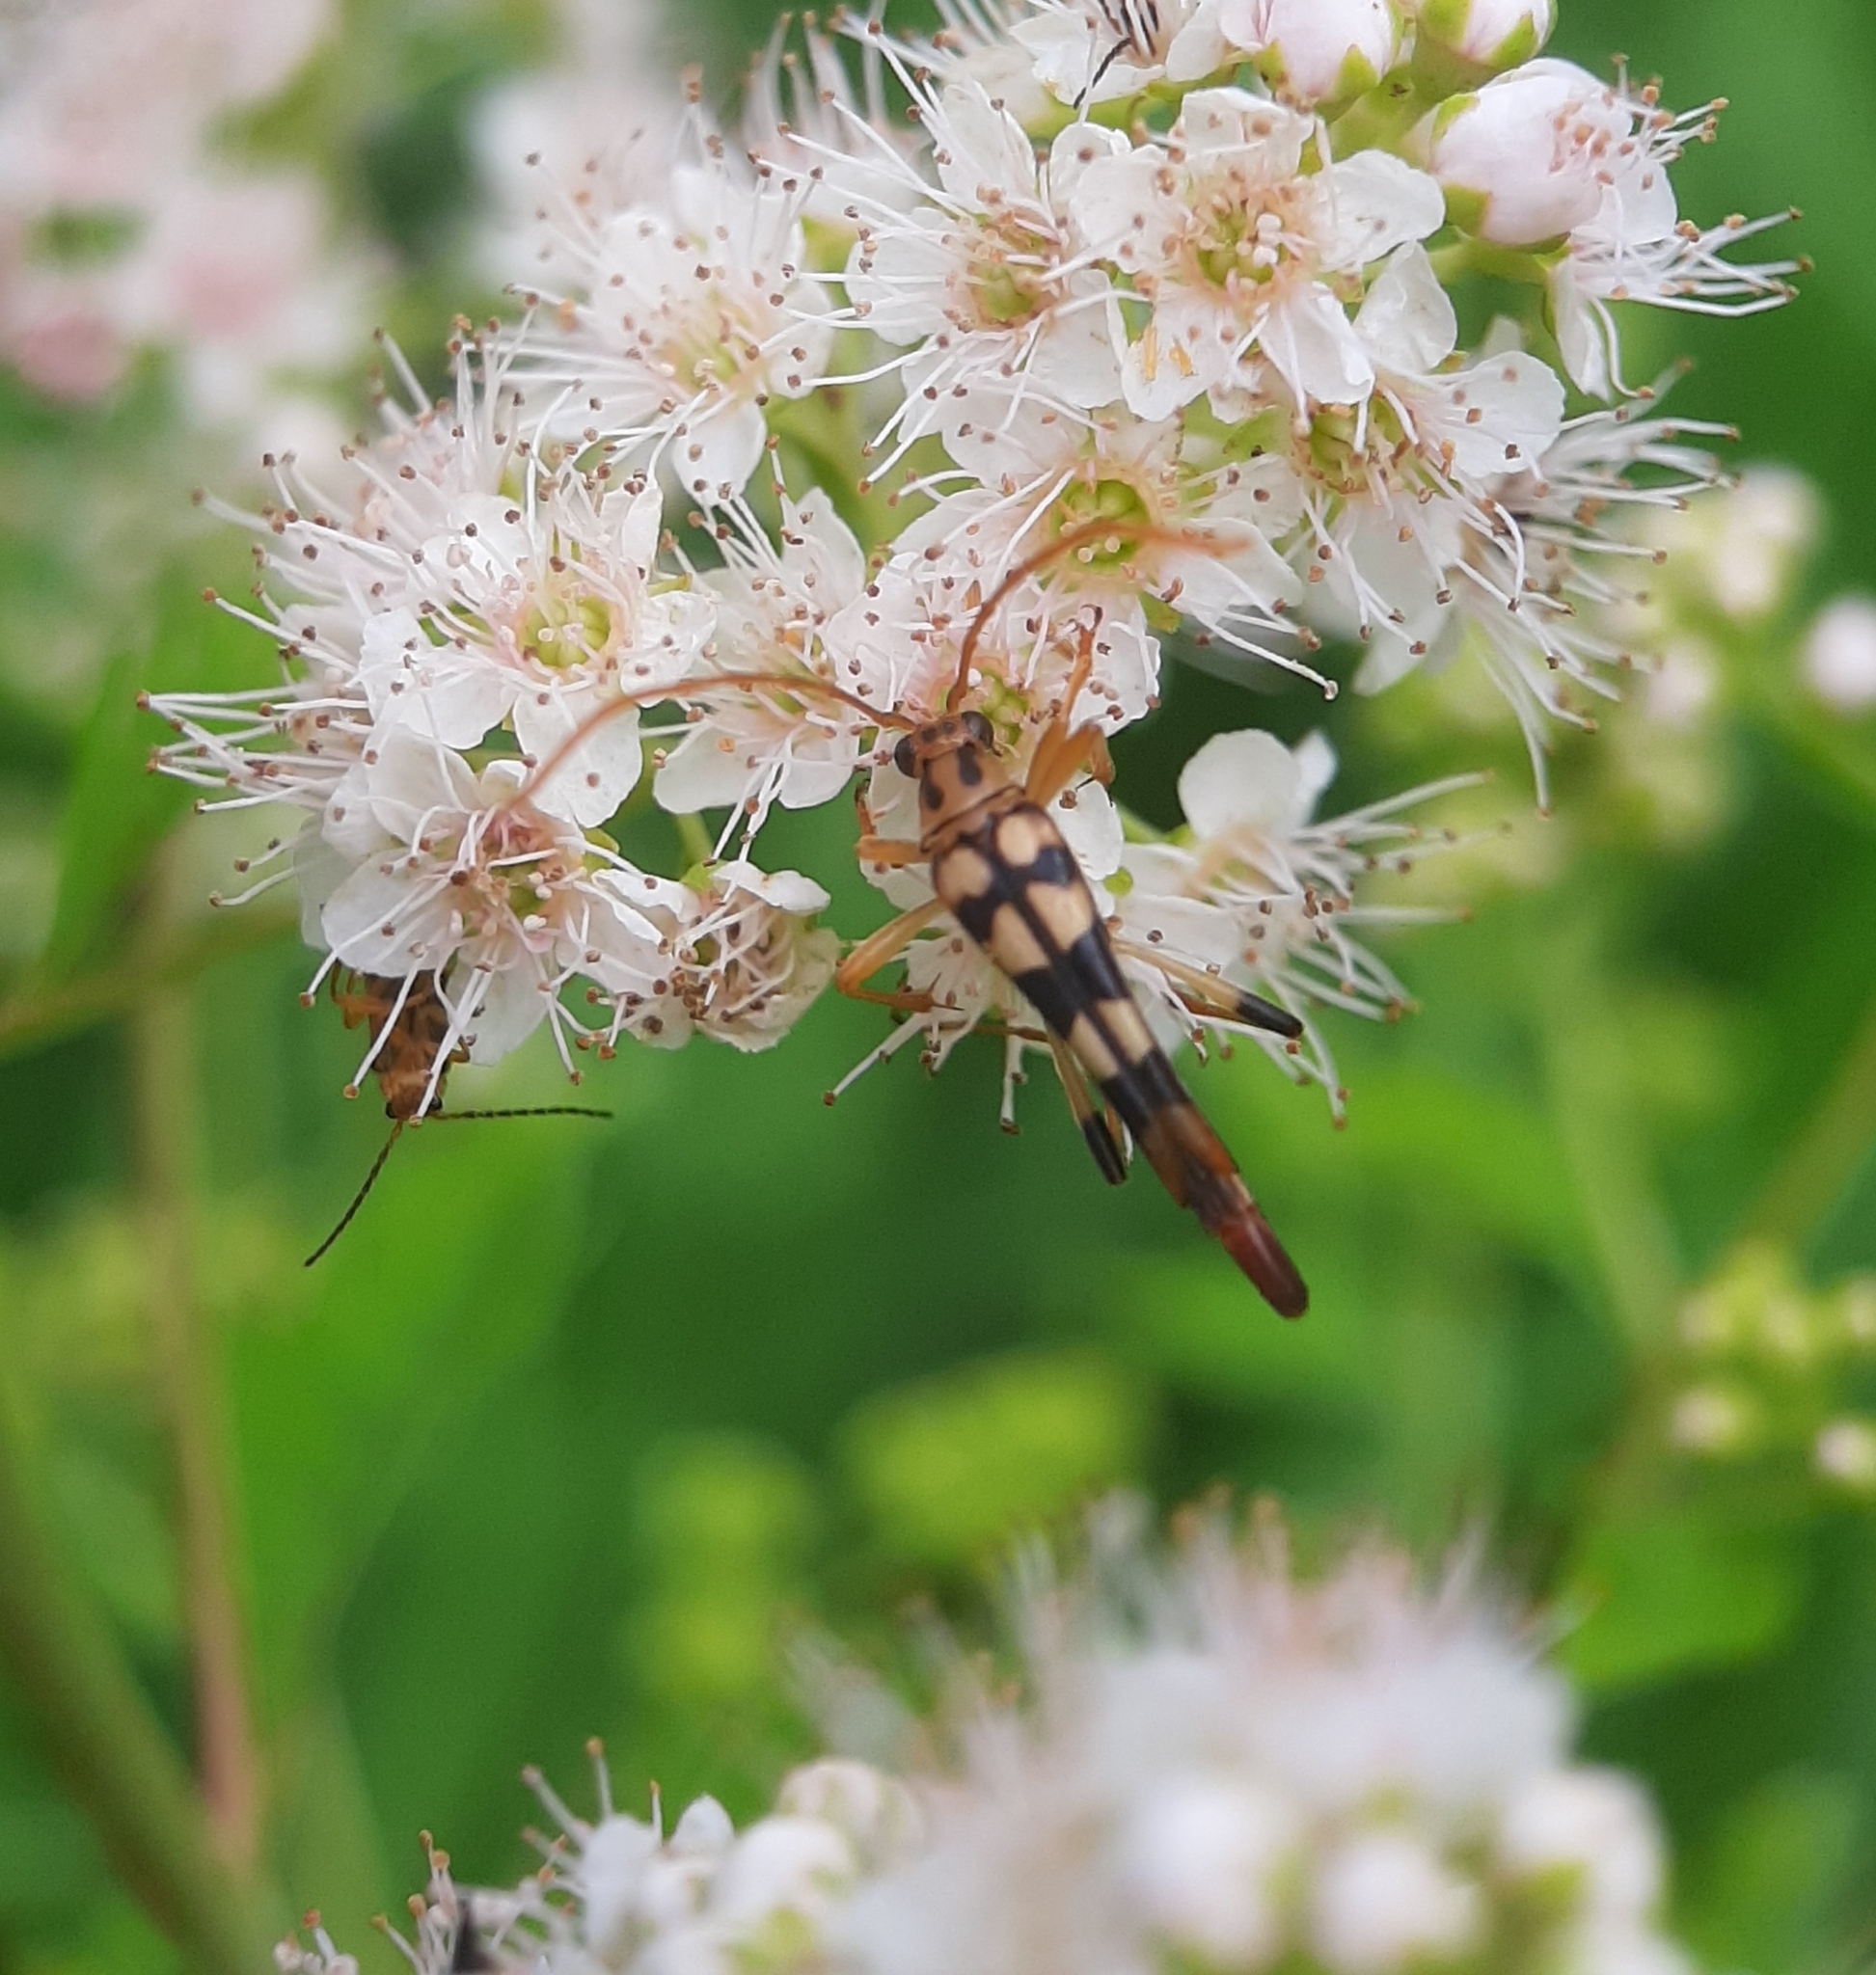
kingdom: Animalia
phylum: Arthropoda
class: Insecta
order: Coleoptera
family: Cerambycidae
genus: Strangalia
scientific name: Strangalia luteicornis
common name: Yellow-horned flower longhorn beetle
